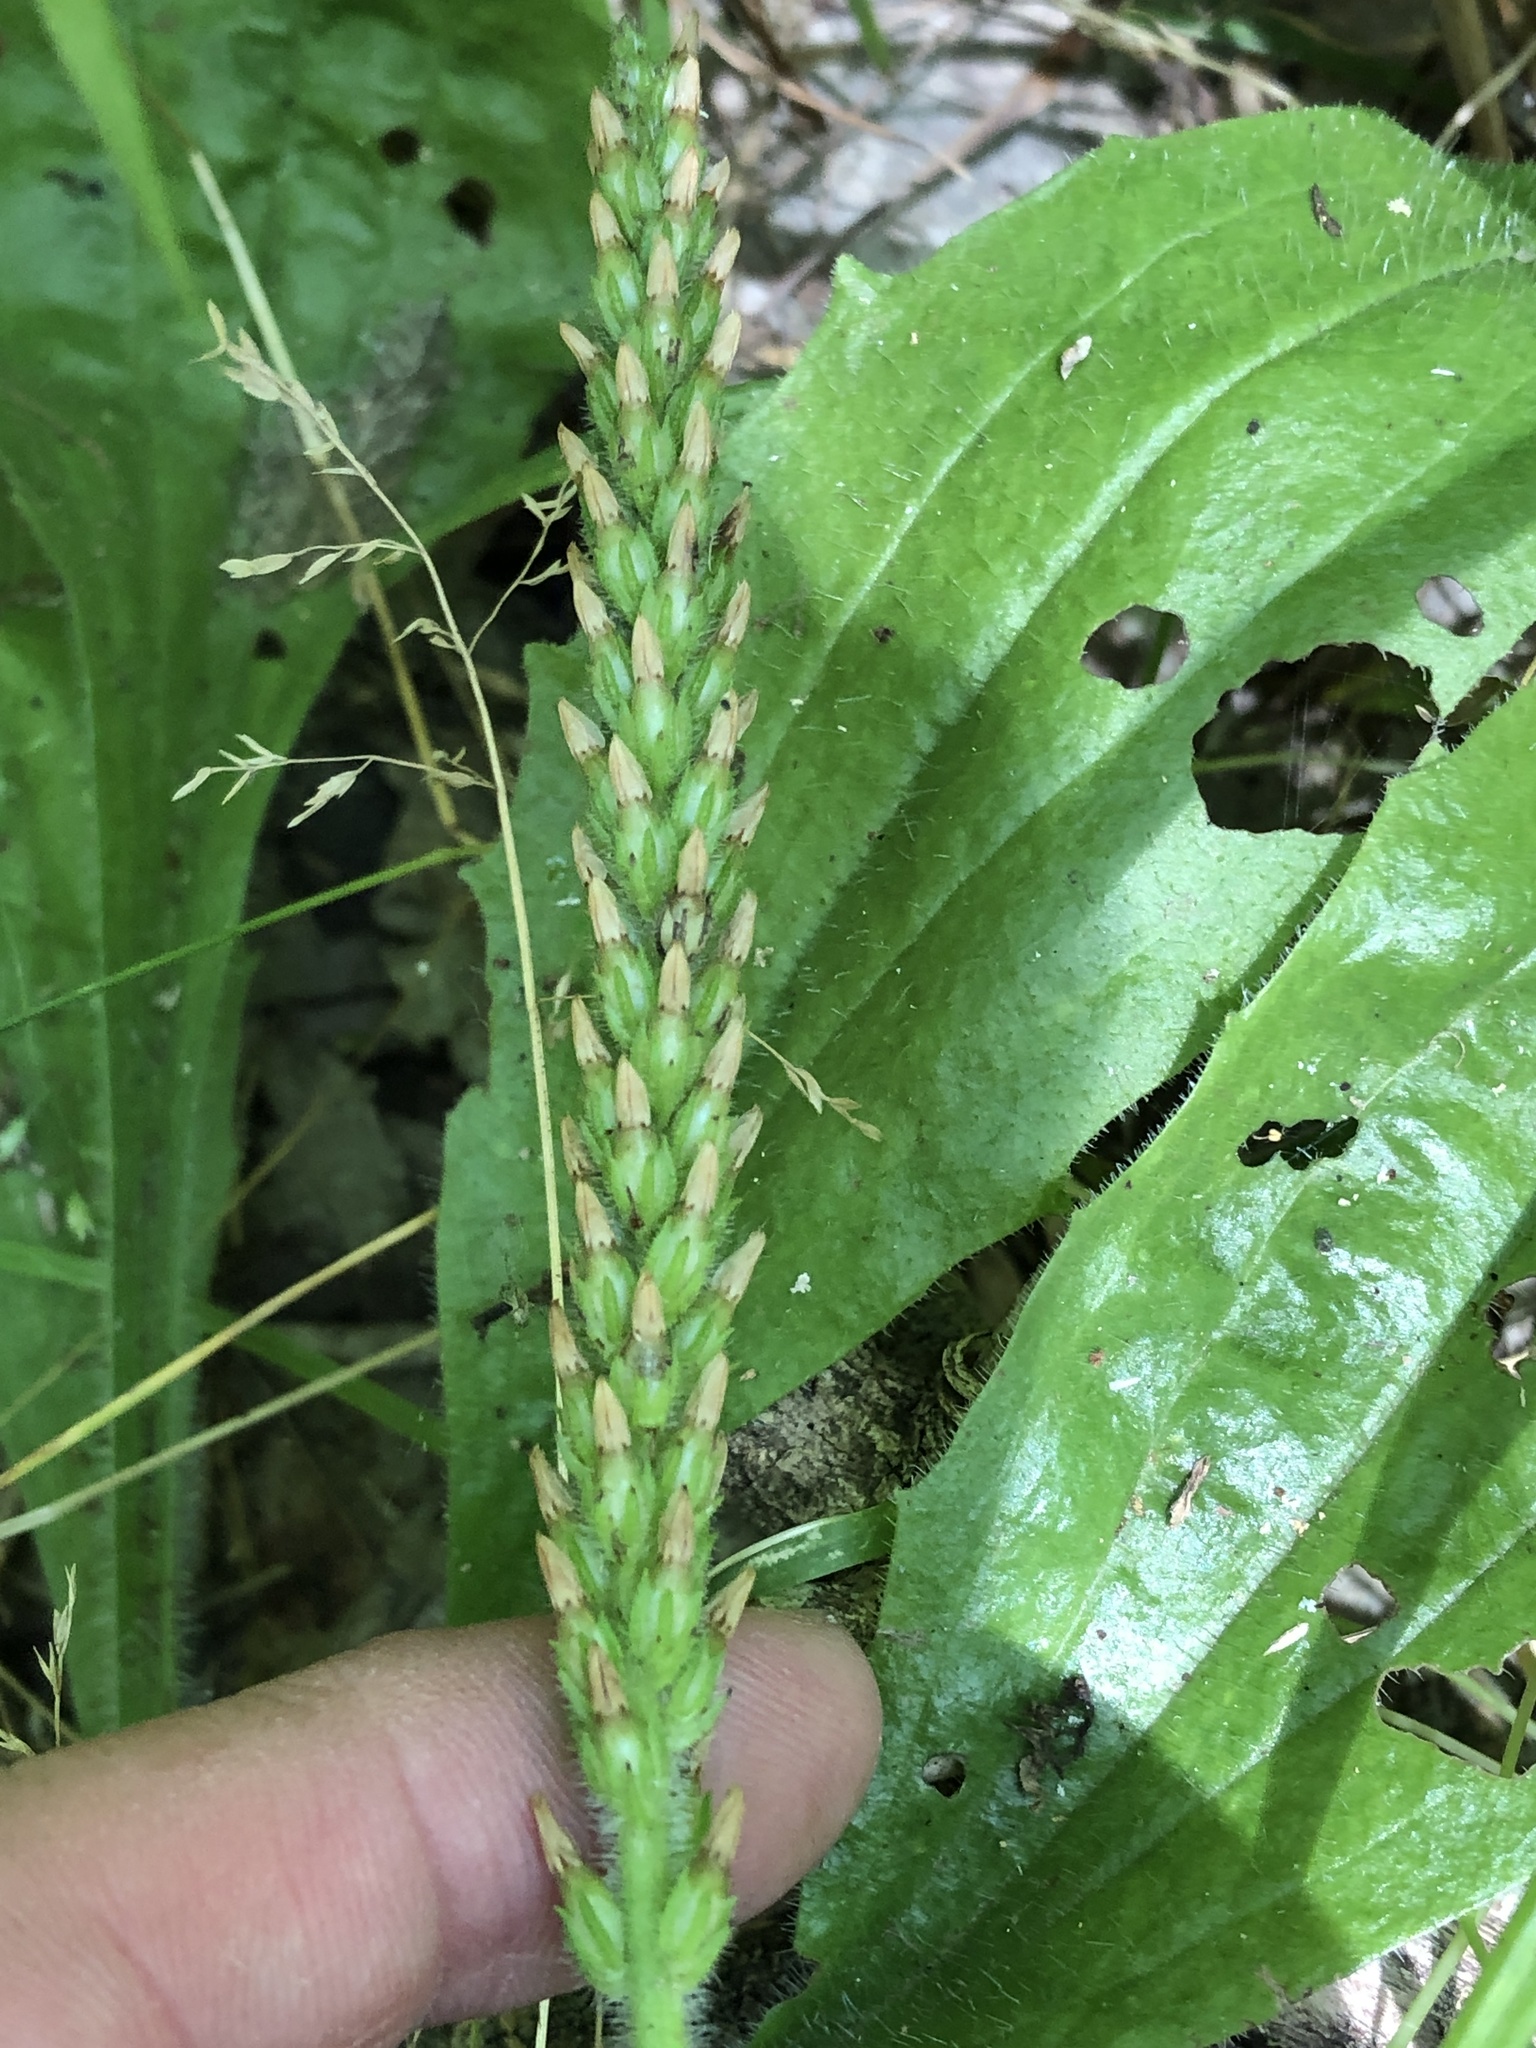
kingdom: Plantae
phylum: Tracheophyta
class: Magnoliopsida
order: Lamiales
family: Plantaginaceae
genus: Plantago
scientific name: Plantago rhodosperma
